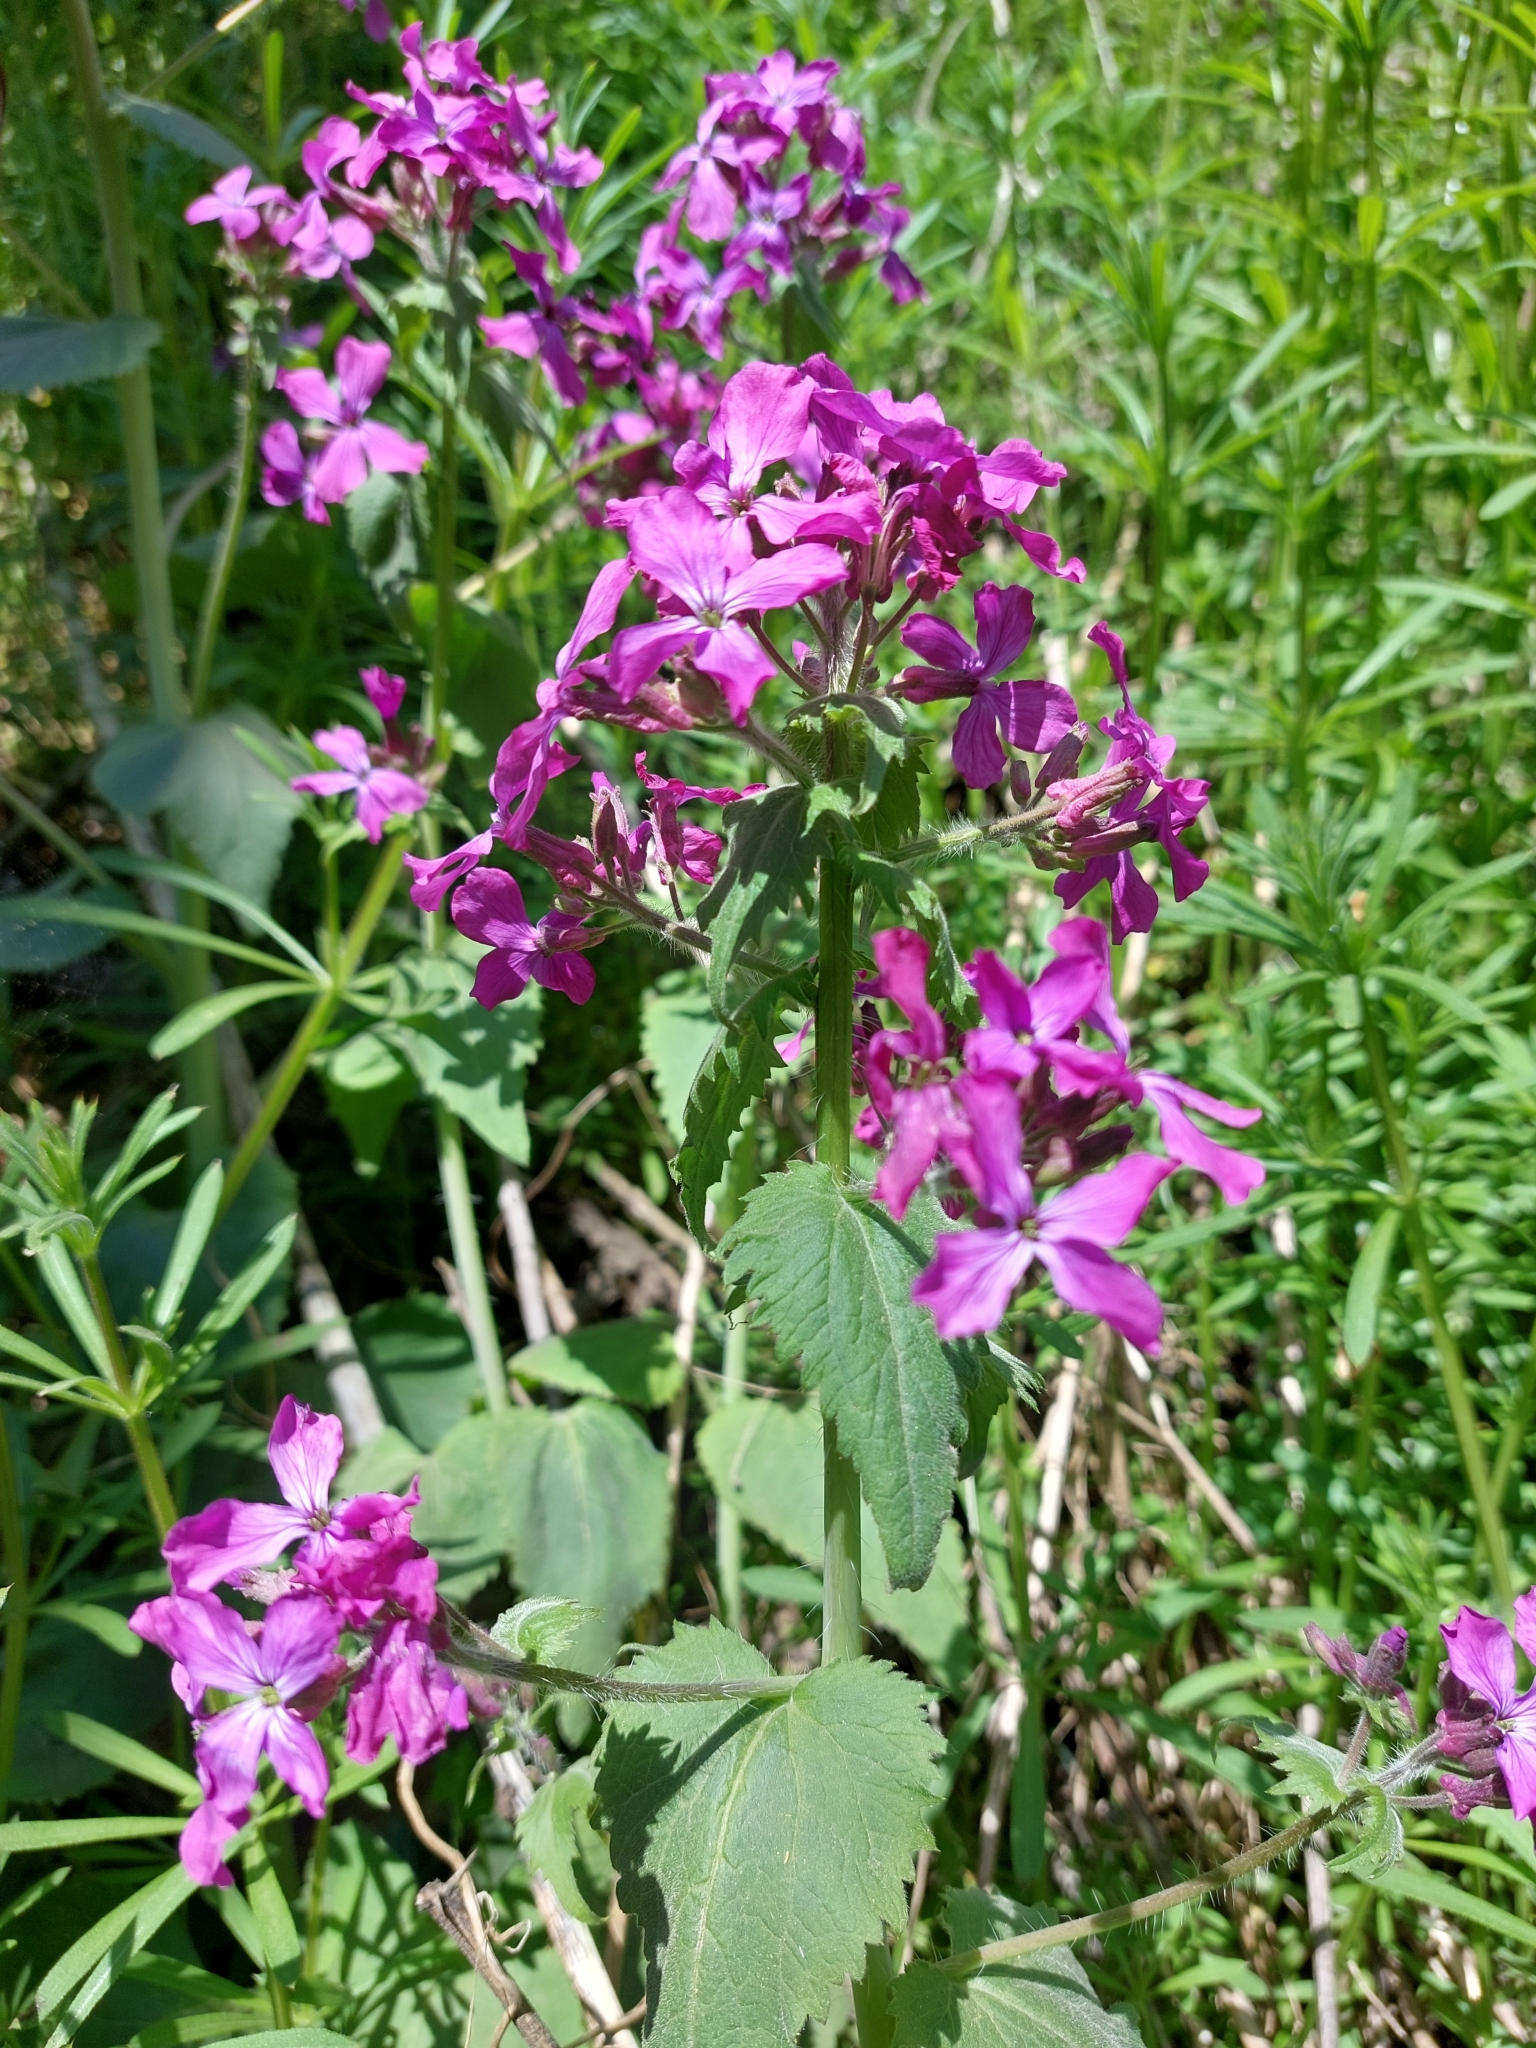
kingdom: Plantae
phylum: Tracheophyta
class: Magnoliopsida
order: Brassicales
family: Brassicaceae
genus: Lunaria
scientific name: Lunaria annua
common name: Honesty
